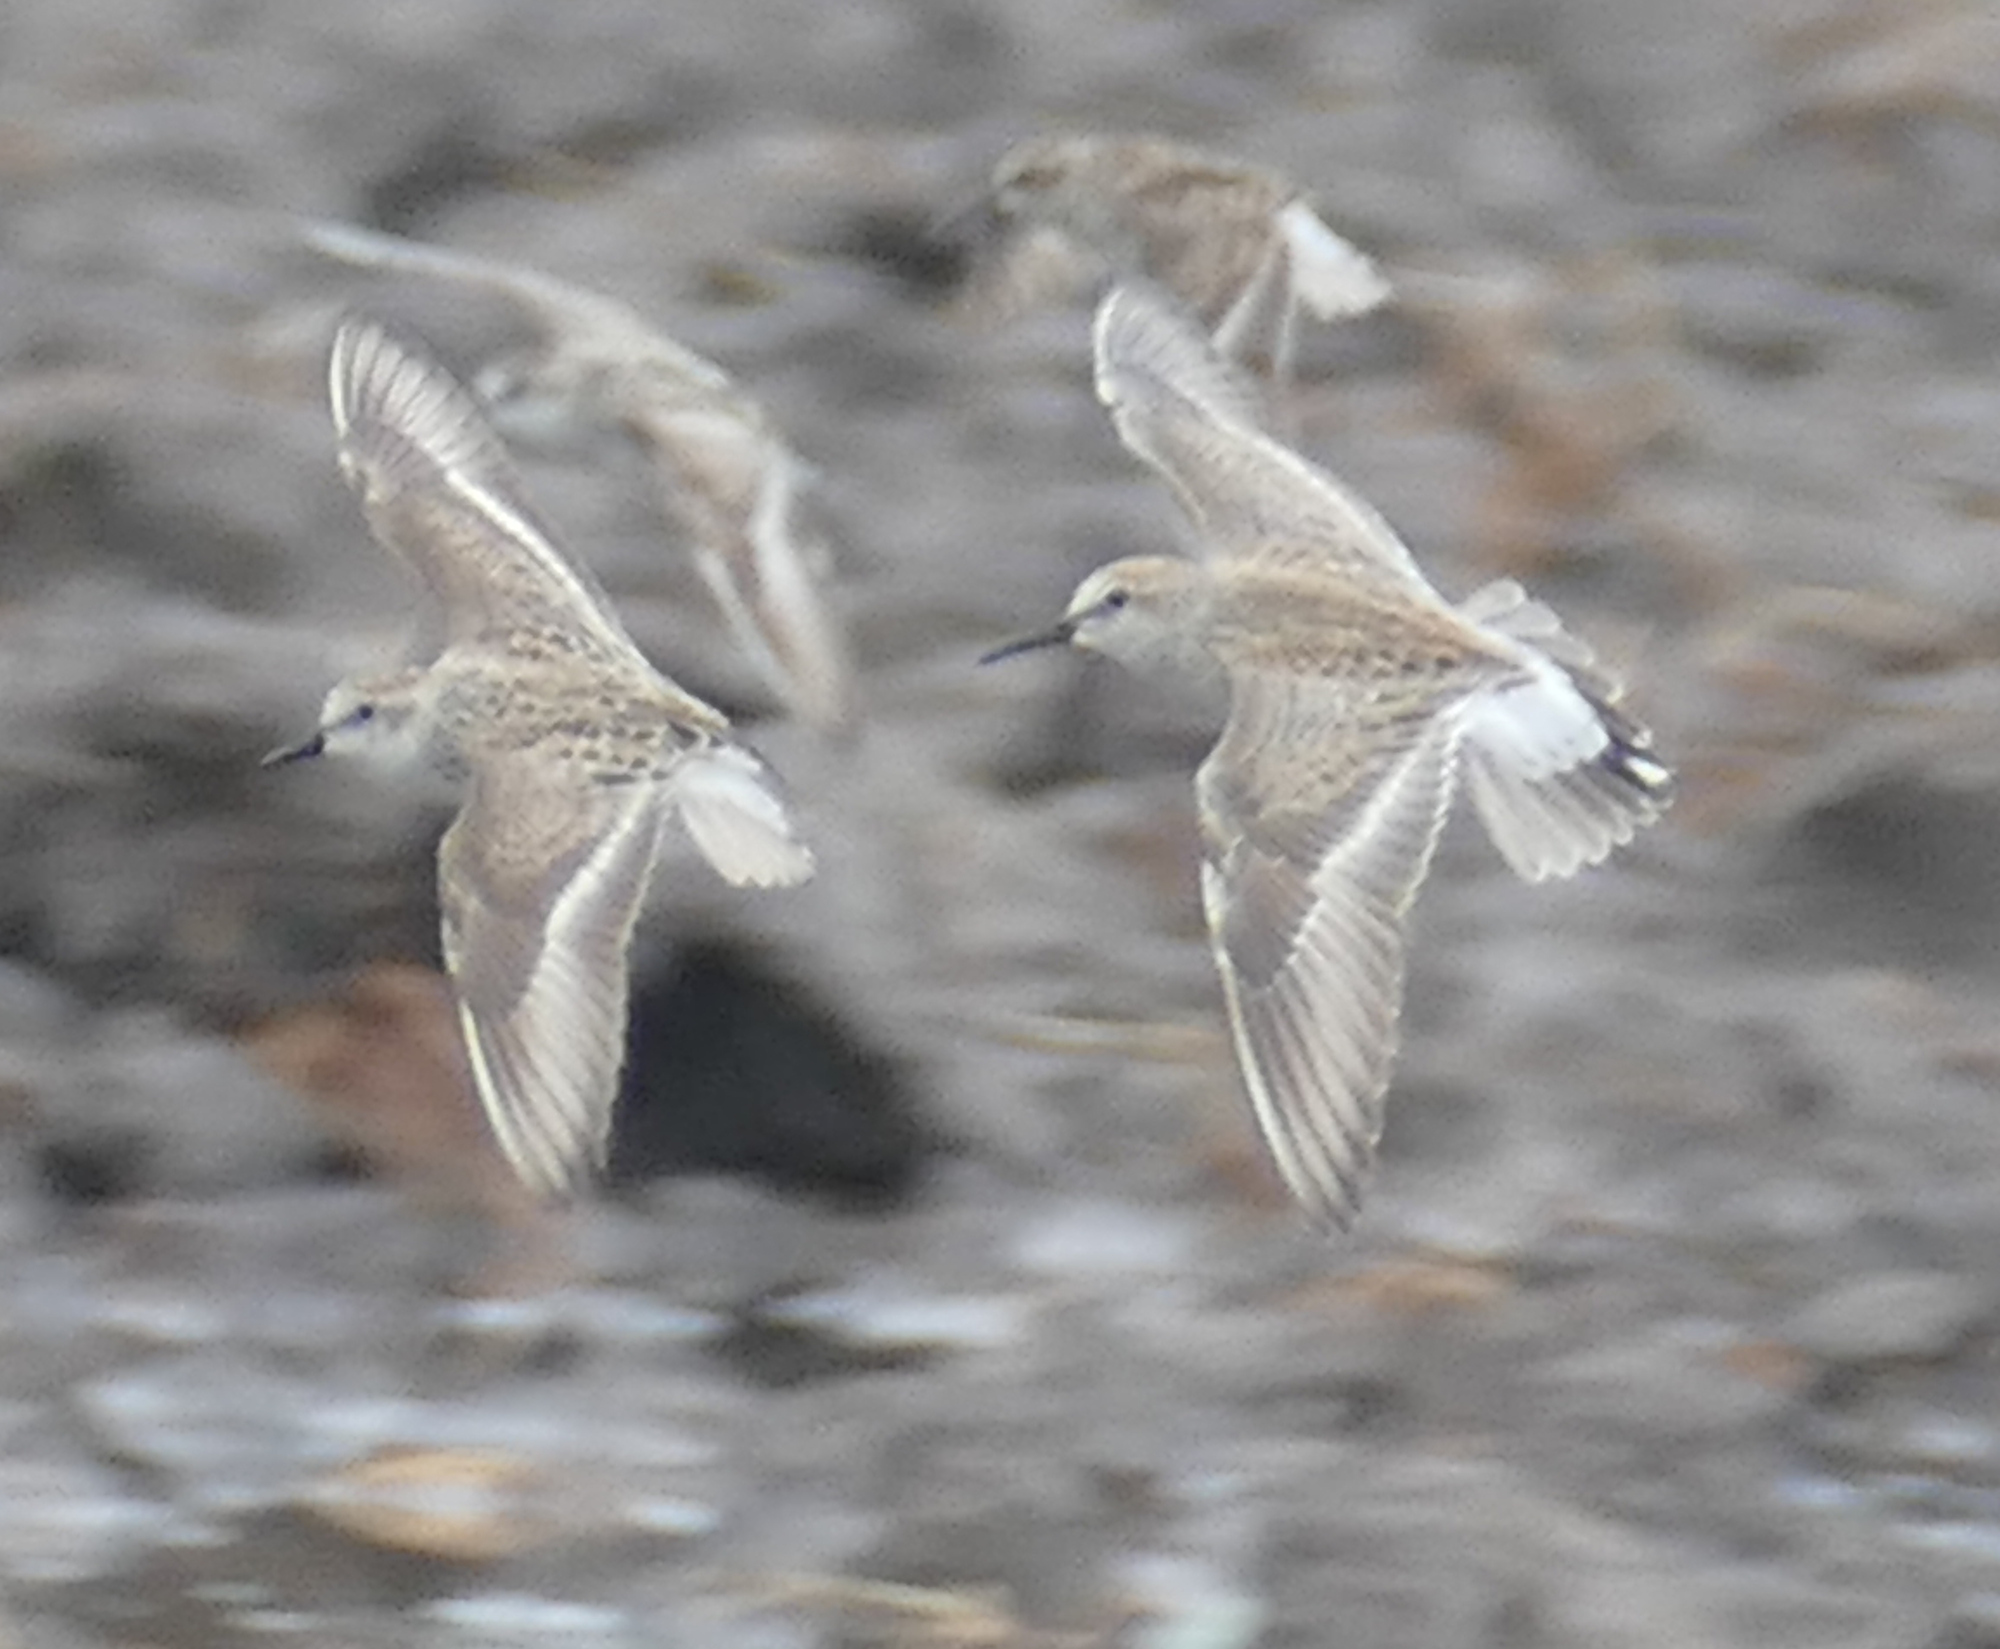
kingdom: Animalia
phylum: Chordata
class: Aves
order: Charadriiformes
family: Scolopacidae
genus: Calidris
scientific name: Calidris fuscicollis
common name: White-rumped sandpiper
